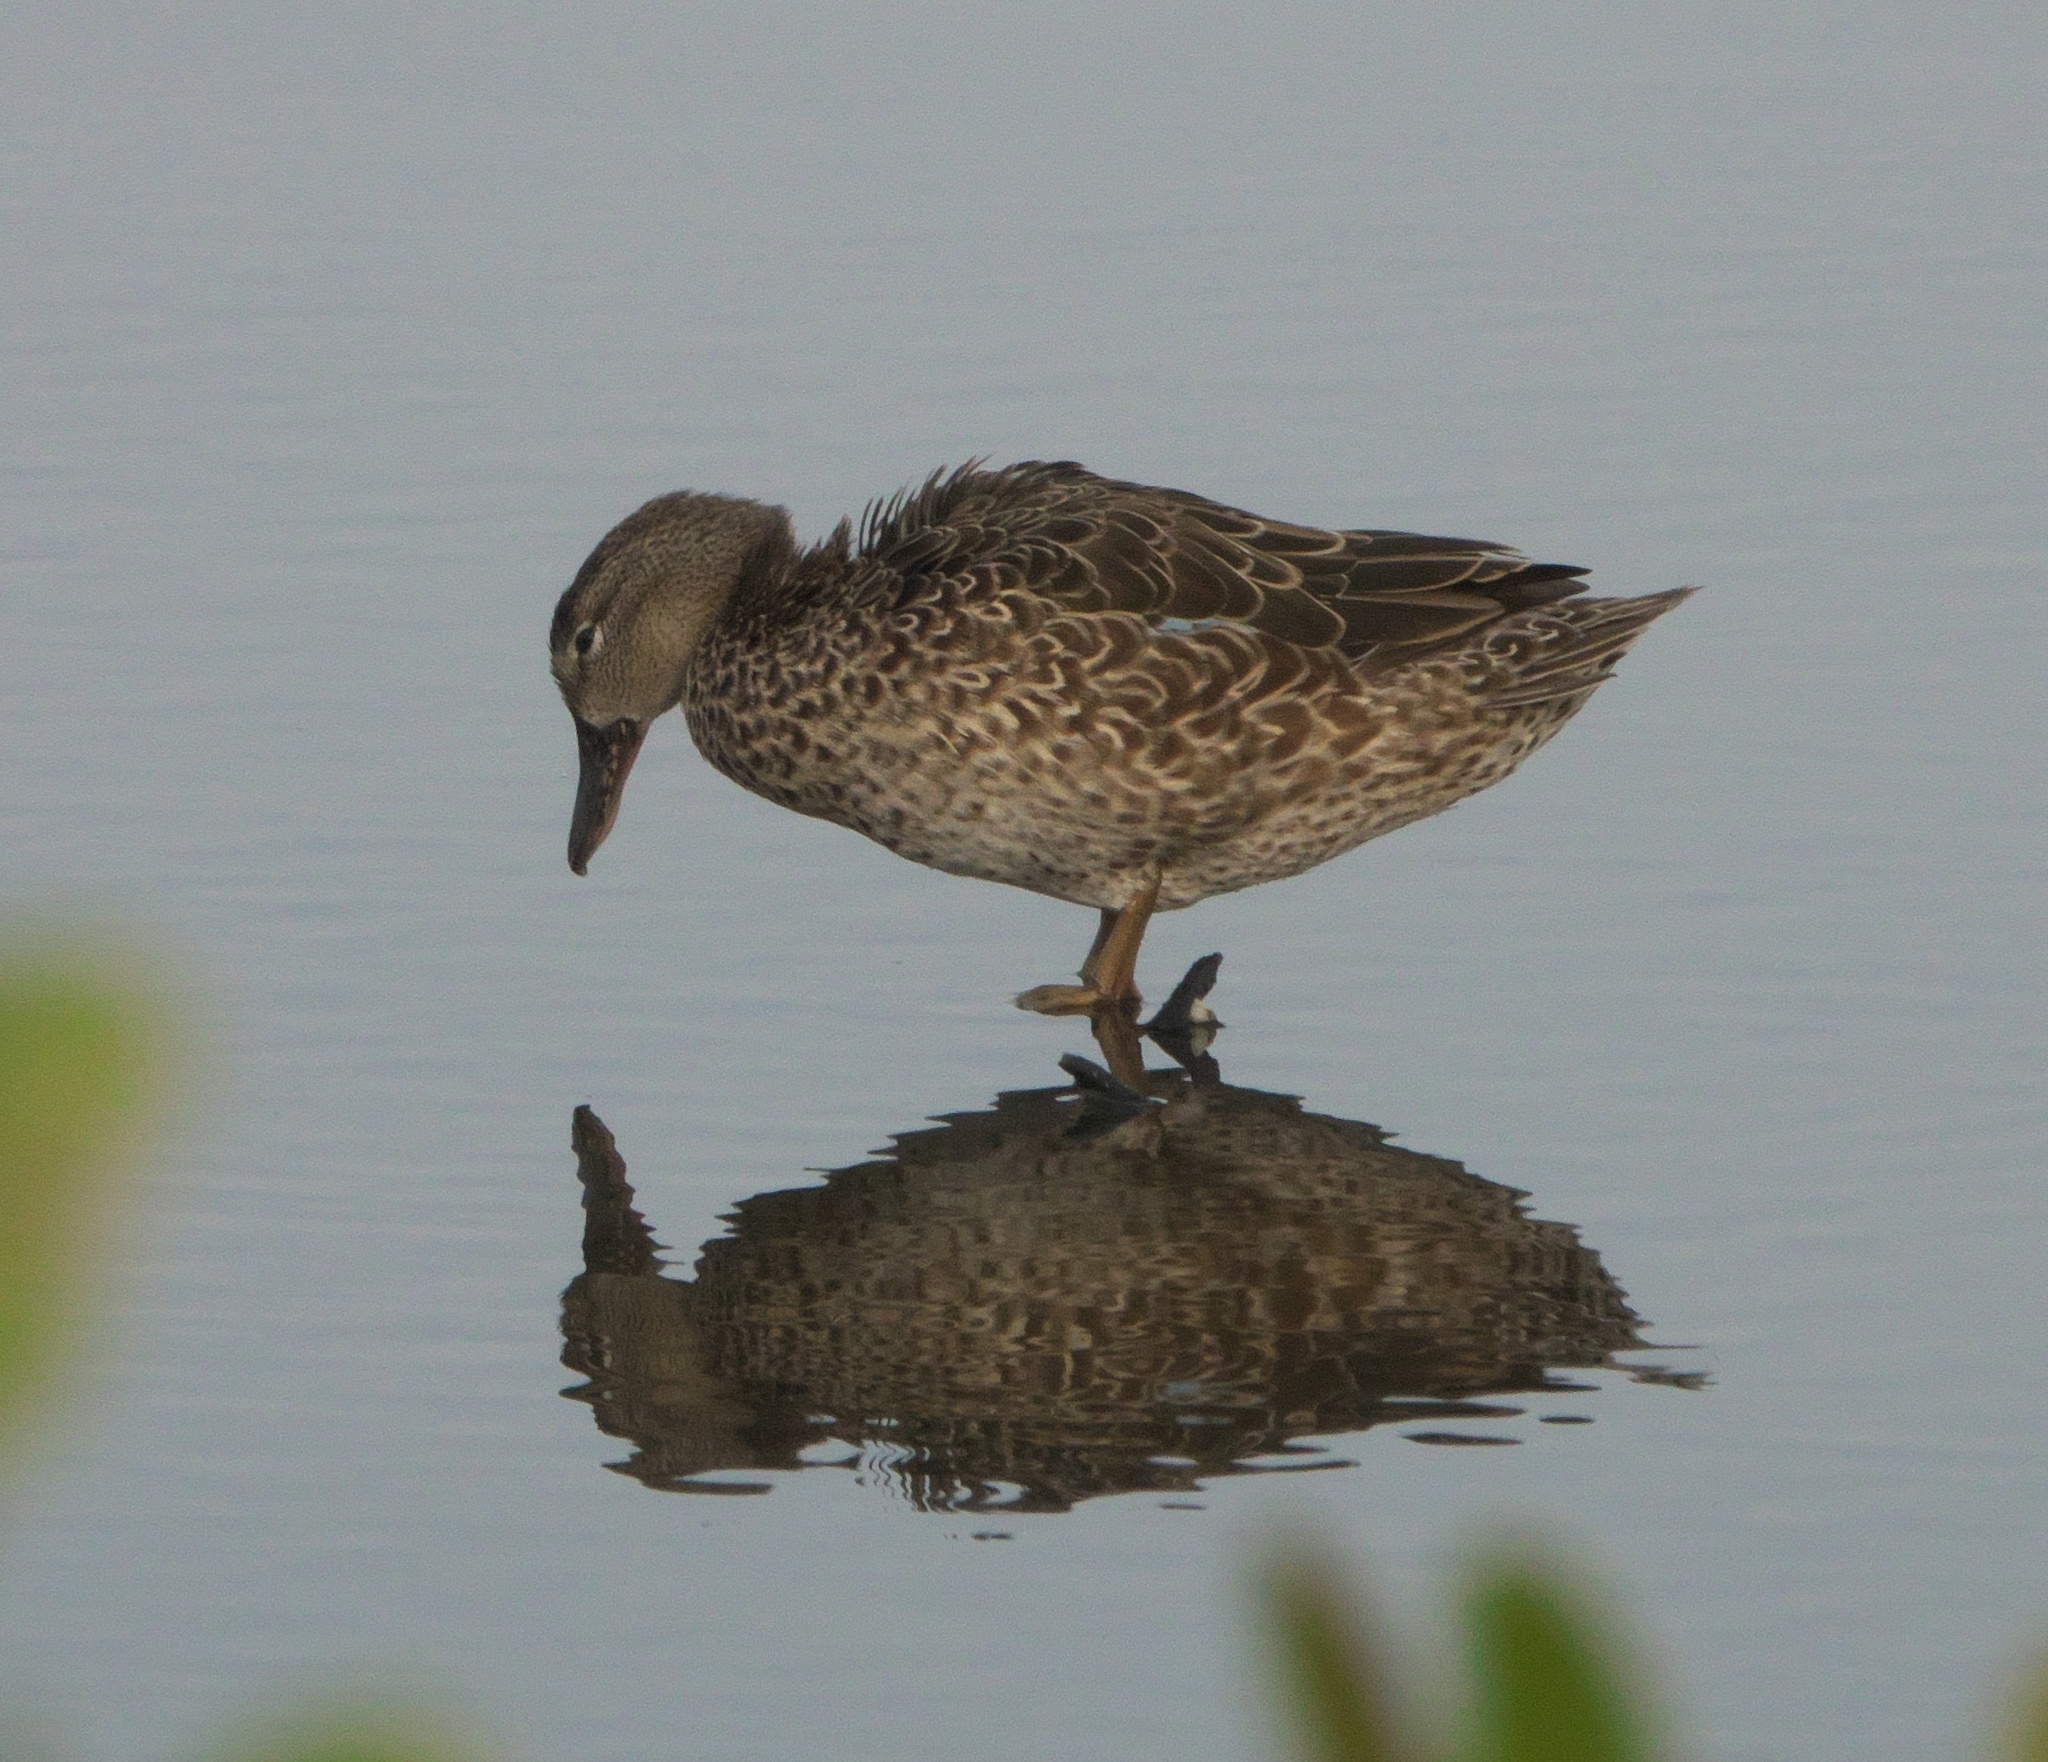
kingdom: Animalia
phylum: Chordata
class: Aves
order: Anseriformes
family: Anatidae
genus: Spatula
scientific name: Spatula discors
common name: Blue-winged teal
